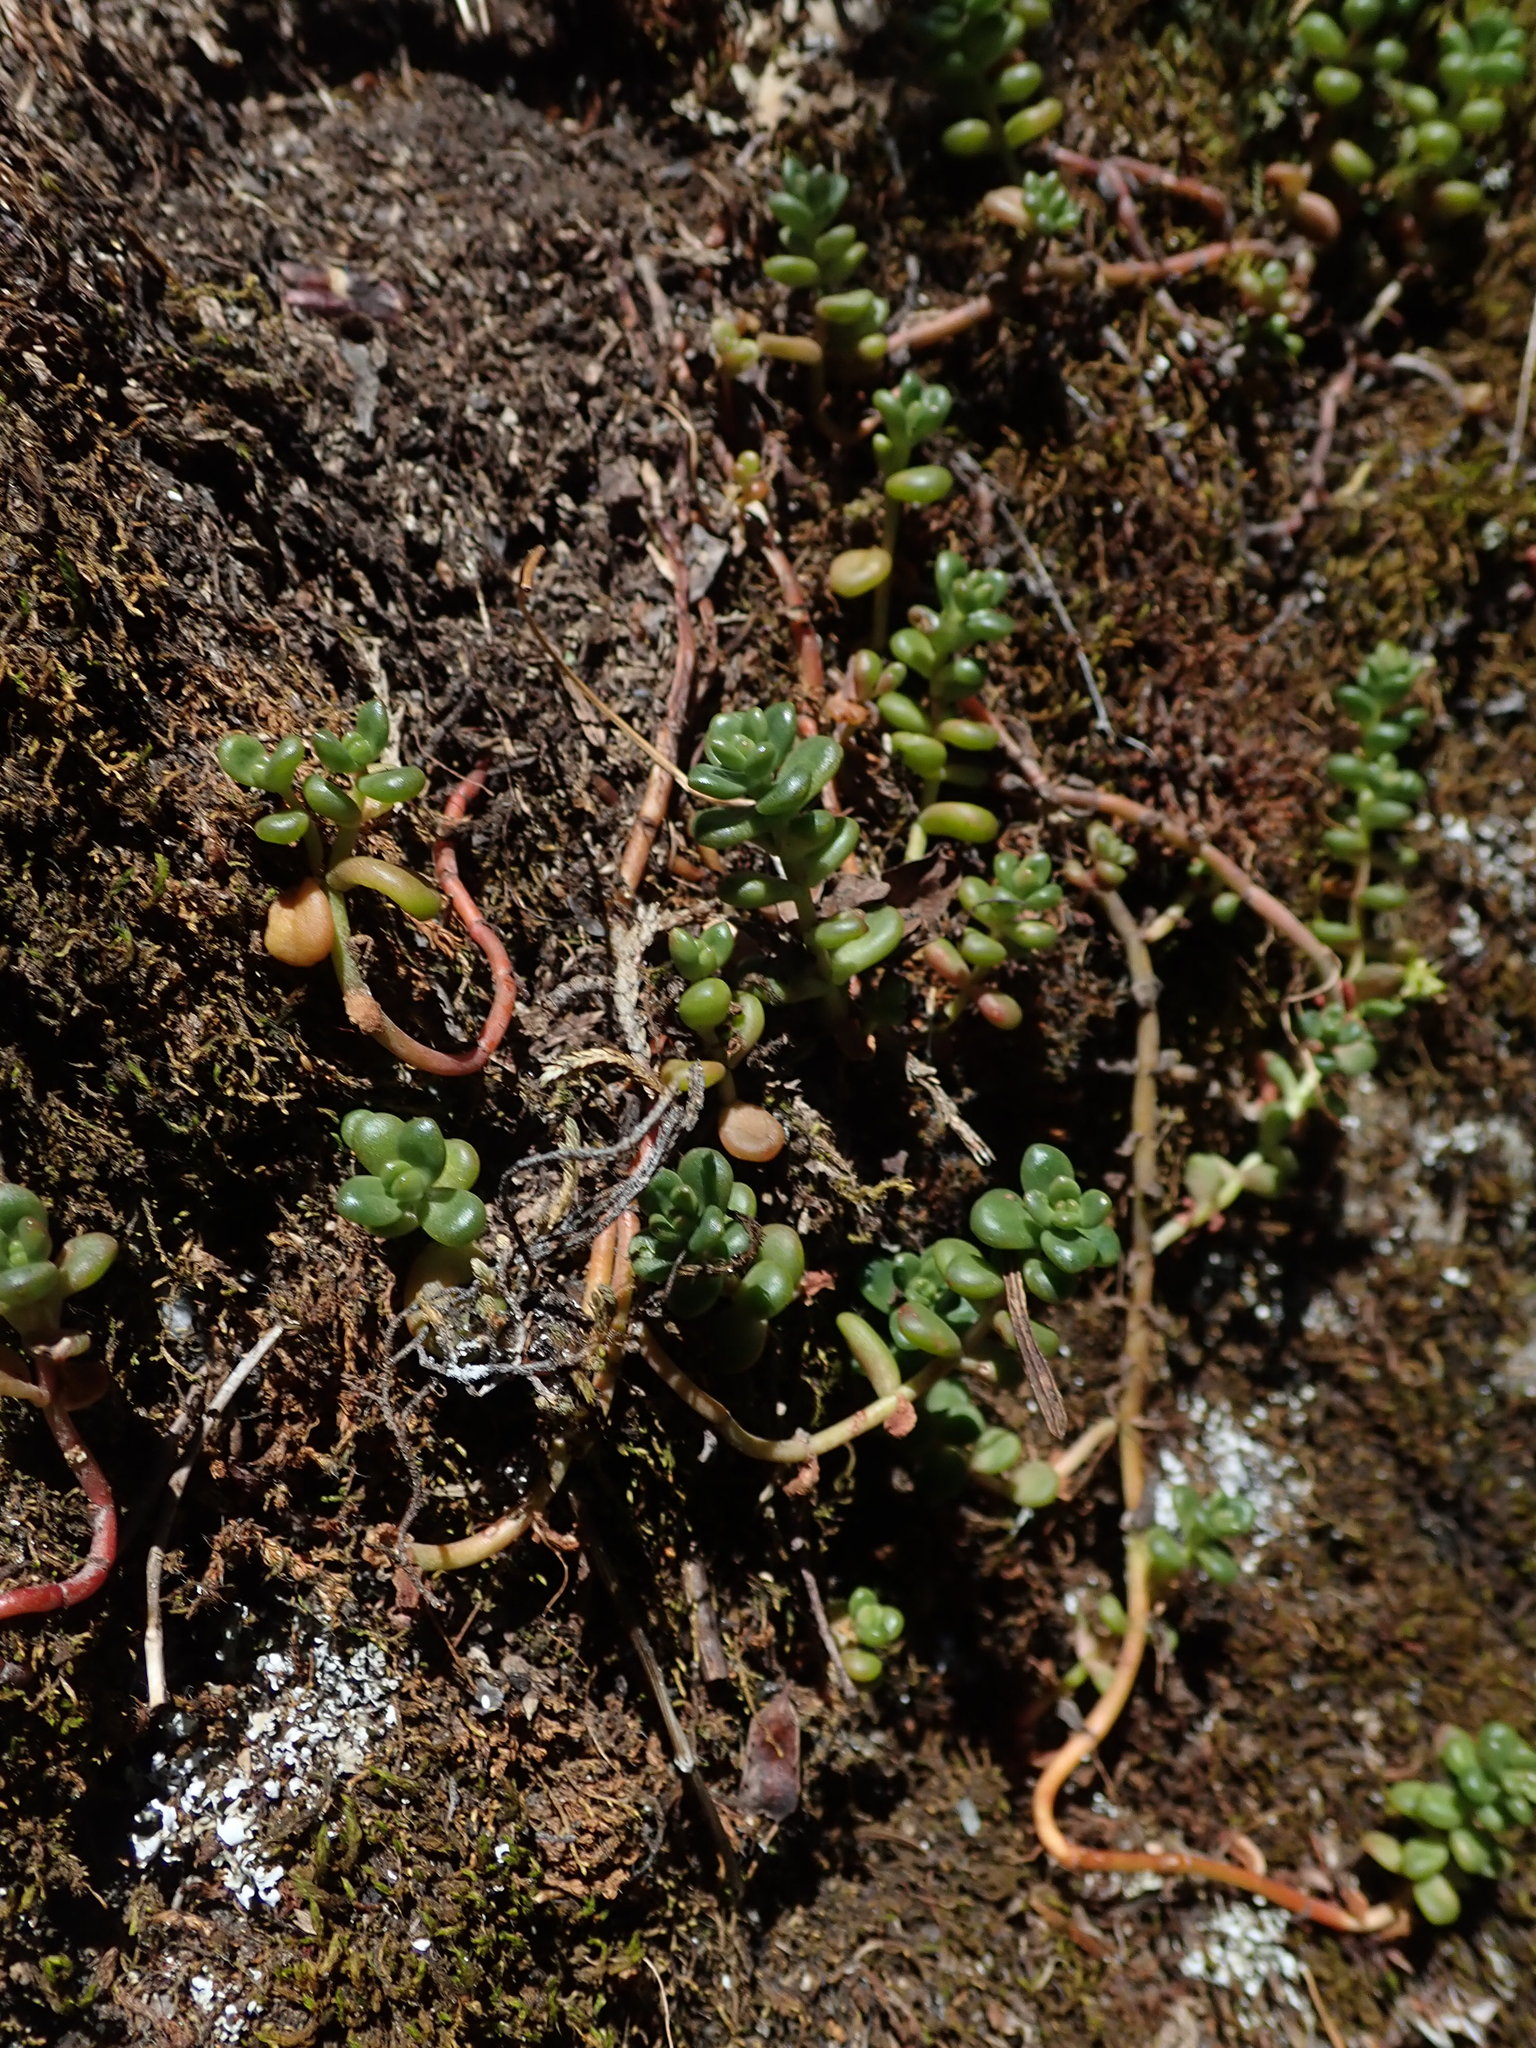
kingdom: Plantae
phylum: Tracheophyta
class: Magnoliopsida
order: Saxifragales
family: Crassulaceae
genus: Sedum
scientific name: Sedum divergens
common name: Cascade stonecrop
